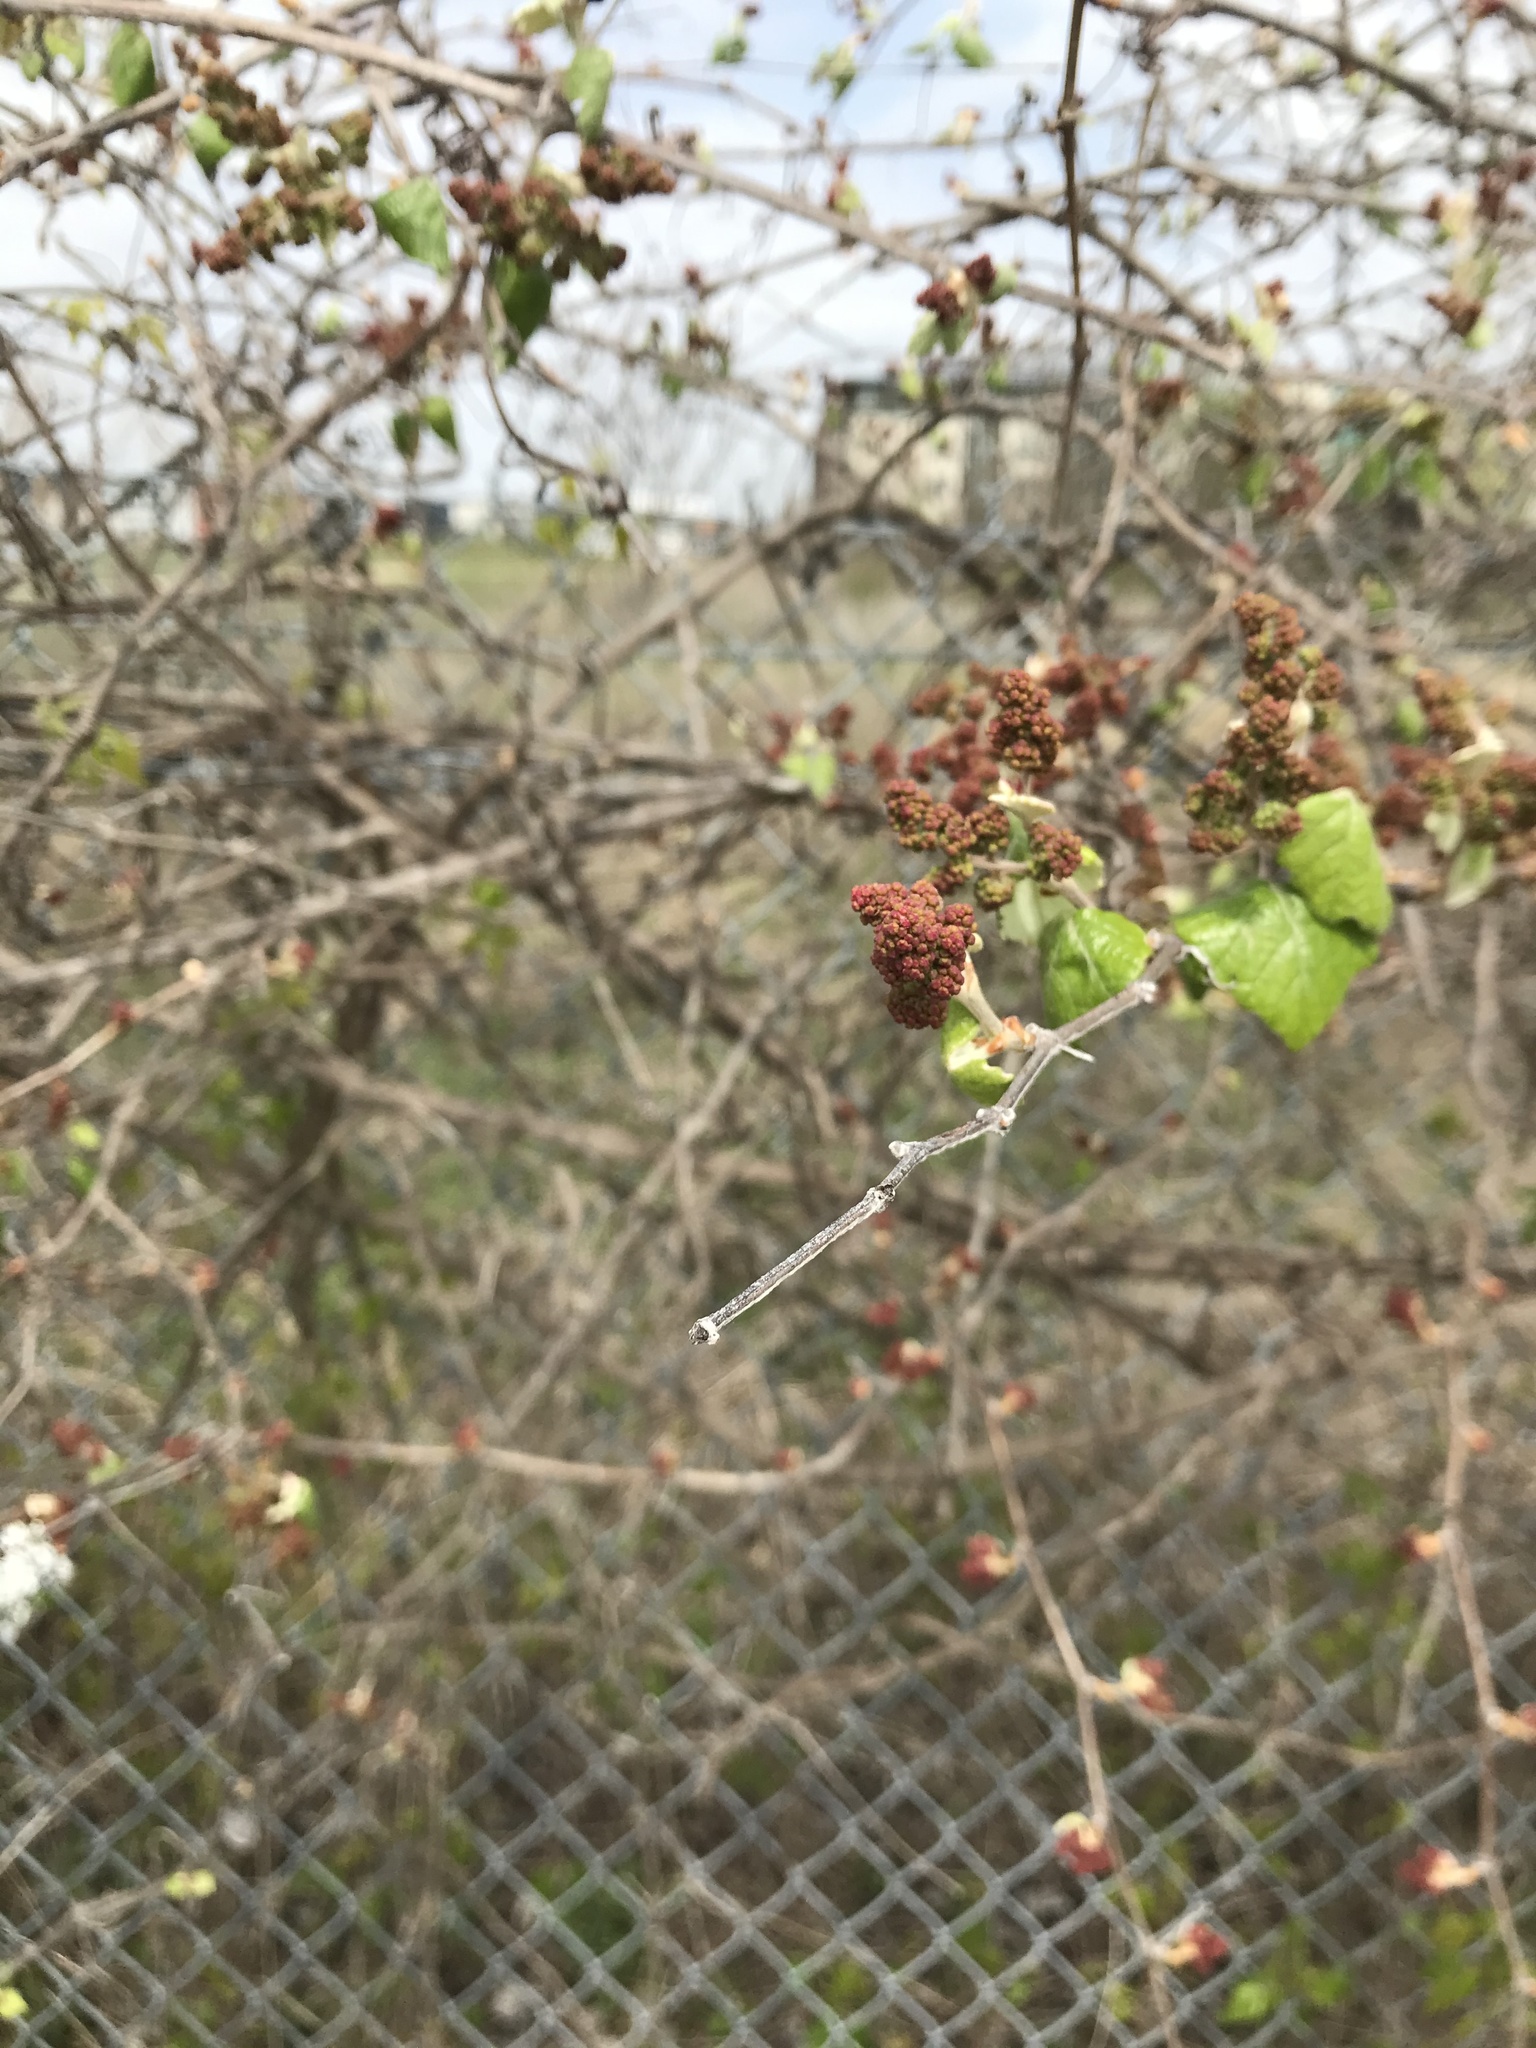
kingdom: Plantae
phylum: Tracheophyta
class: Magnoliopsida
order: Vitales
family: Vitaceae
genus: Vitis
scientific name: Vitis mustangensis
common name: Mustang grape
